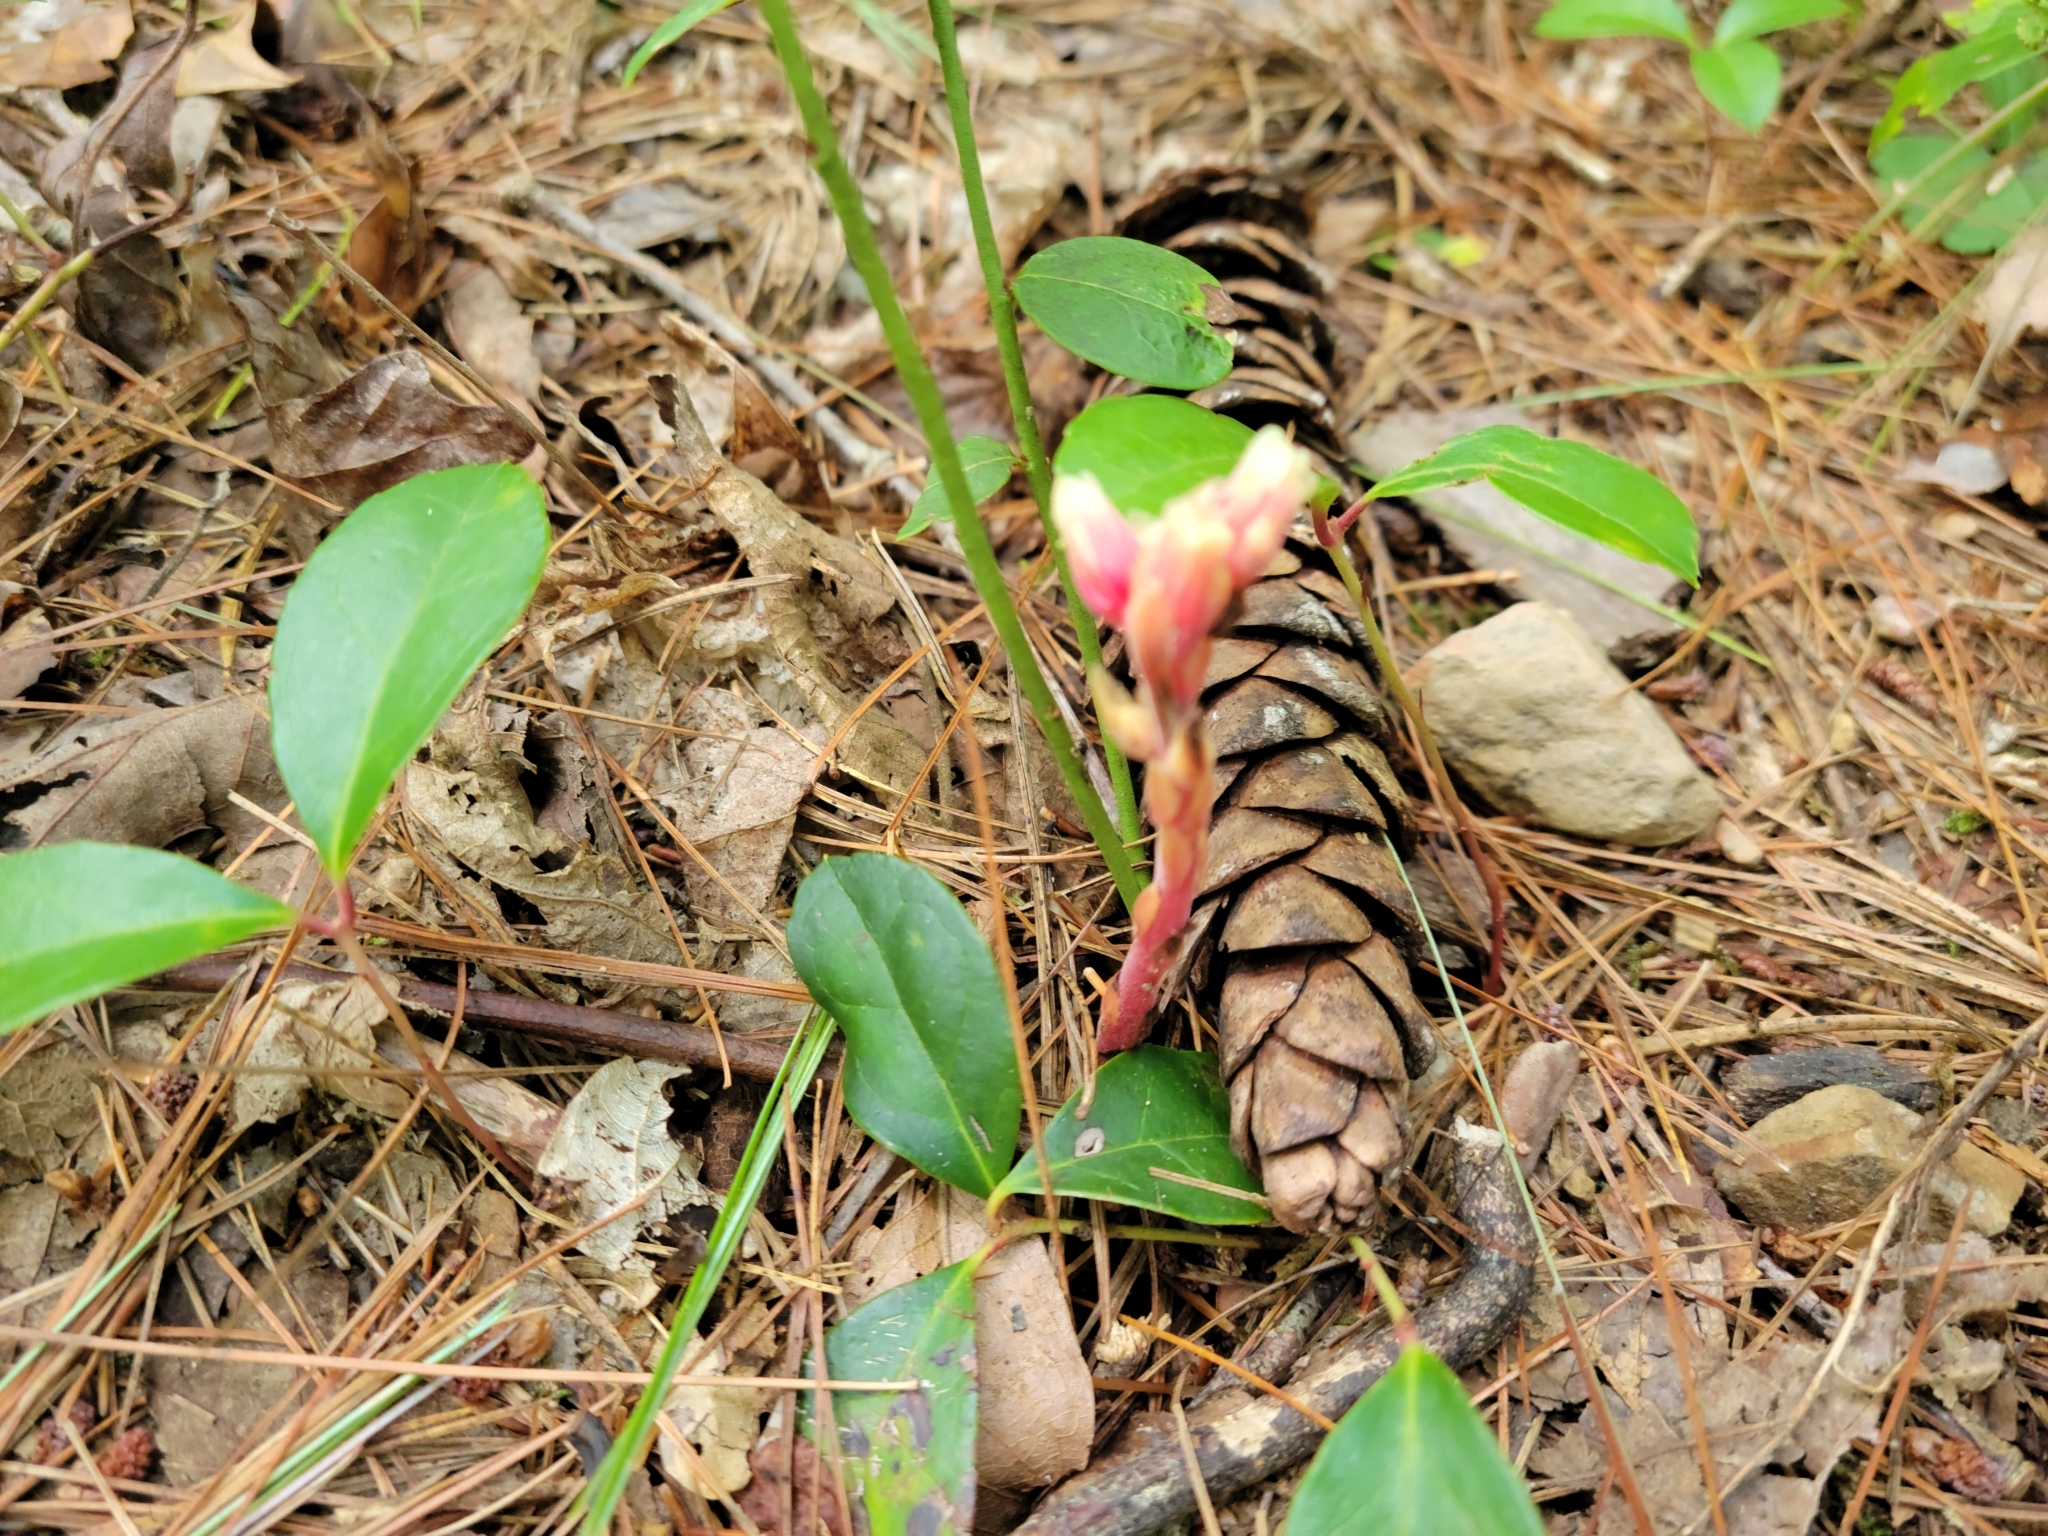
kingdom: Plantae
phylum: Tracheophyta
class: Magnoliopsida
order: Ericales
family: Ericaceae
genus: Hypopitys
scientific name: Hypopitys monotropa
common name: Yellow bird's-nest
